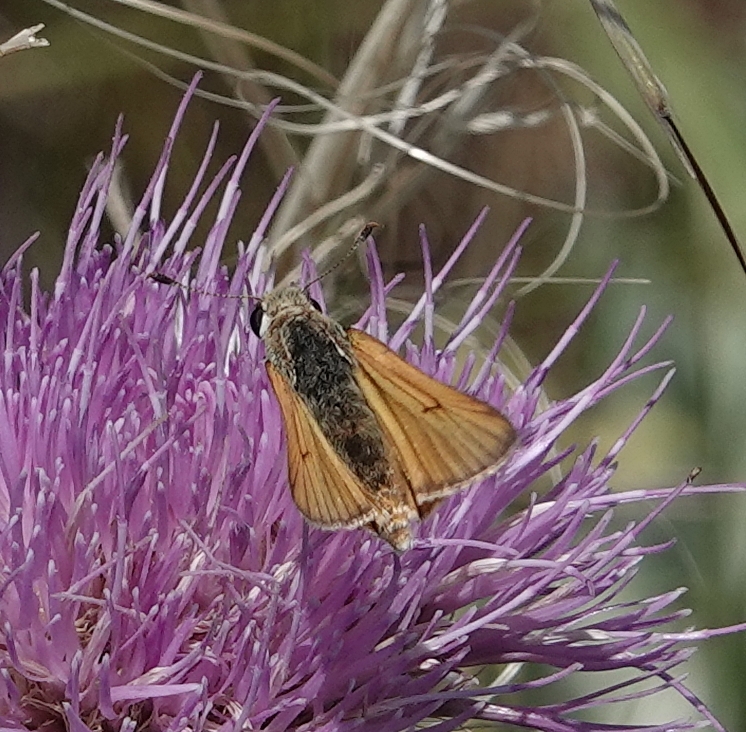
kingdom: Animalia
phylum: Arthropoda
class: Insecta
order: Lepidoptera
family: Hesperiidae
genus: Atrytone
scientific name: Atrytone delaware
